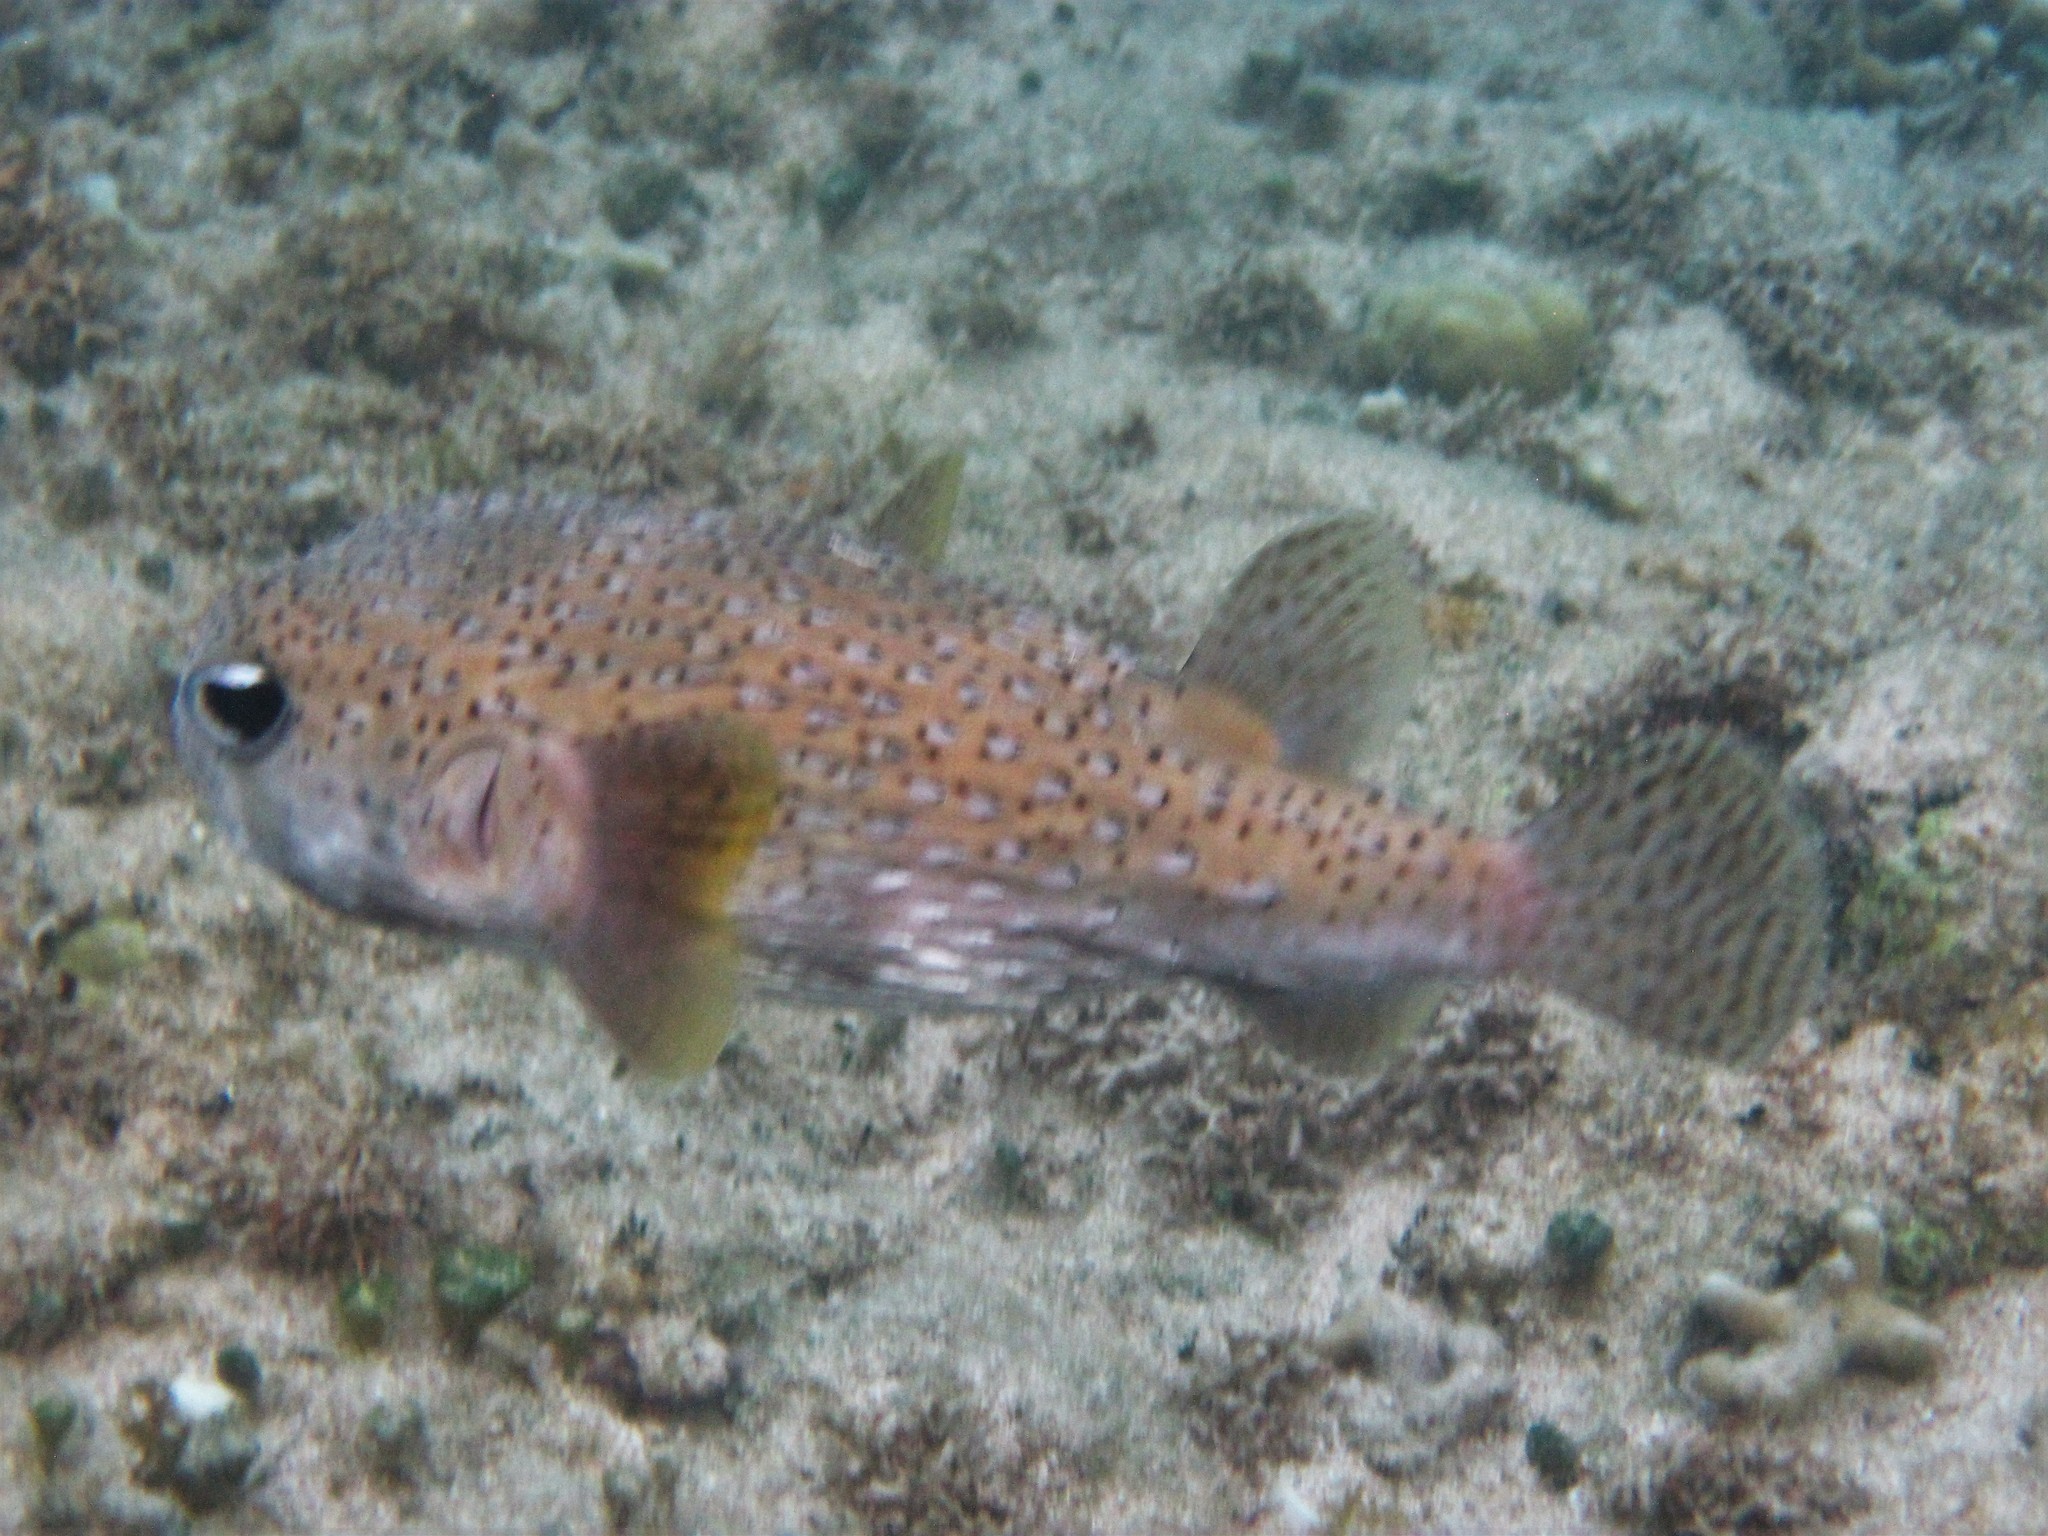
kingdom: Animalia
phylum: Chordata
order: Tetraodontiformes
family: Diodontidae
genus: Diodon
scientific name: Diodon hystrix
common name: Giant porcupinefish
